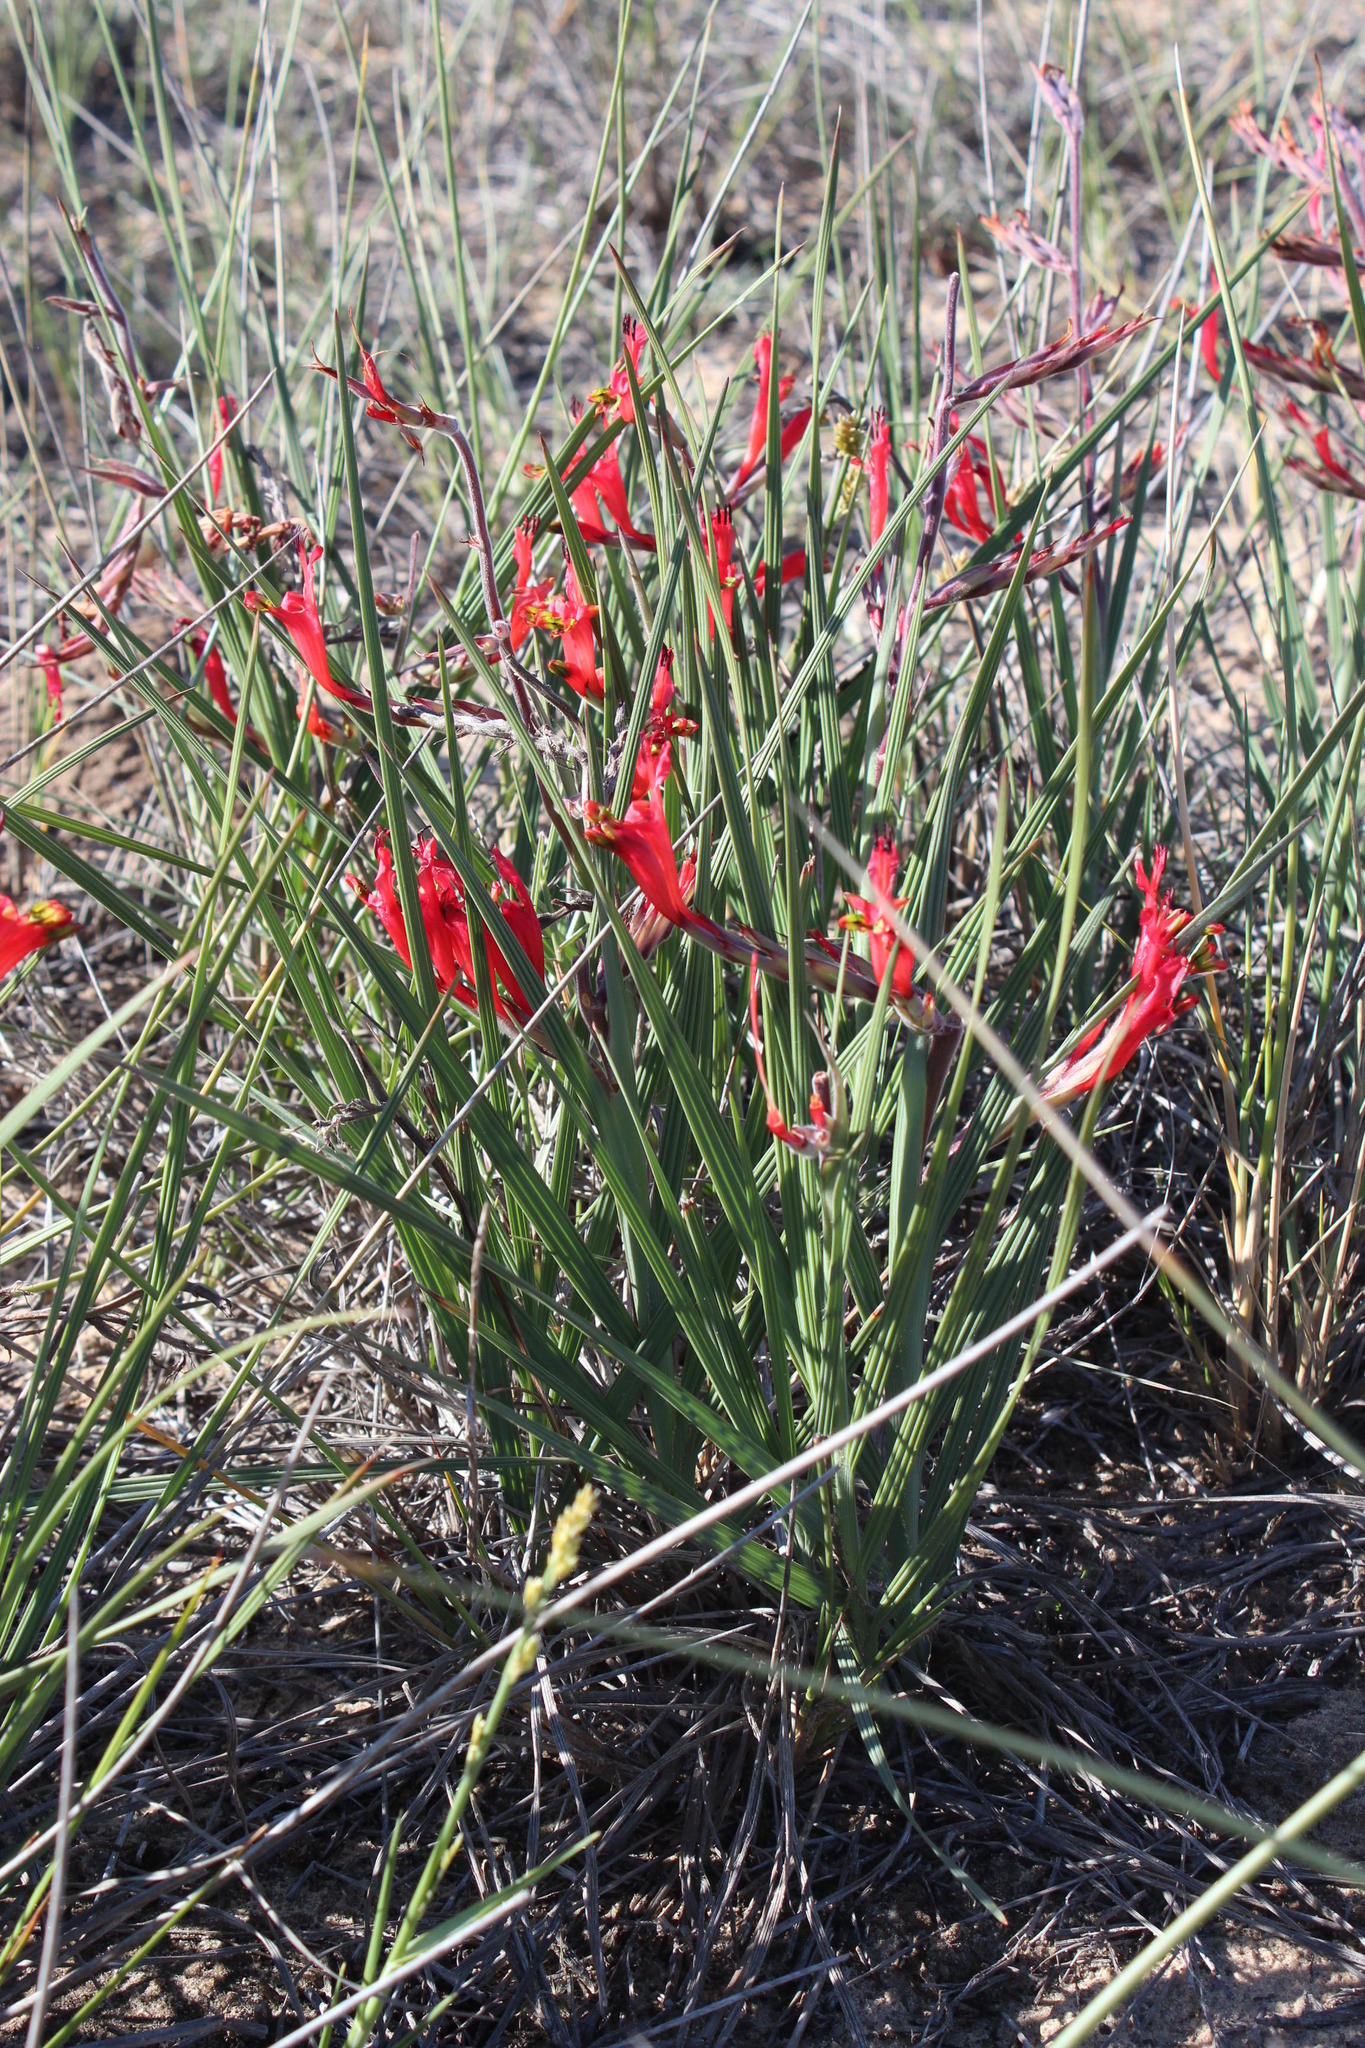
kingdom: Plantae
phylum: Tracheophyta
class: Liliopsida
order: Asparagales
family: Iridaceae
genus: Babiana
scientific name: Babiana hirsuta
